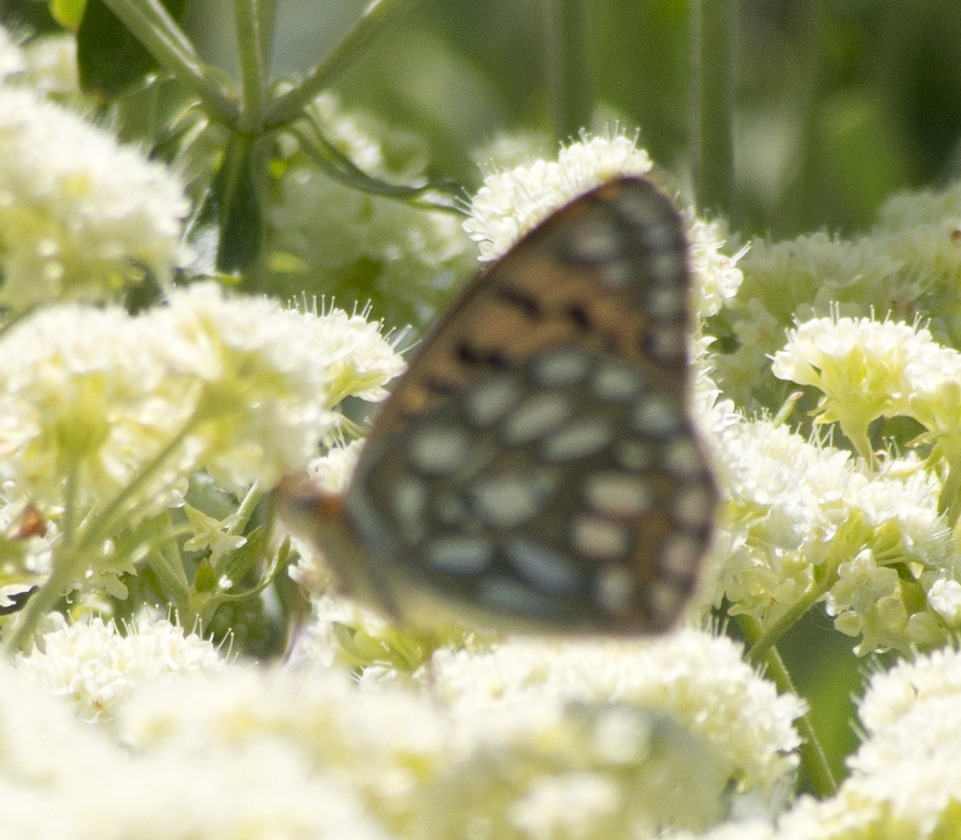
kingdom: Animalia
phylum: Arthropoda
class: Insecta
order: Lepidoptera
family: Nymphalidae
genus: Speyeria
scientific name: Speyeria callippe
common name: Callippe fritillary
